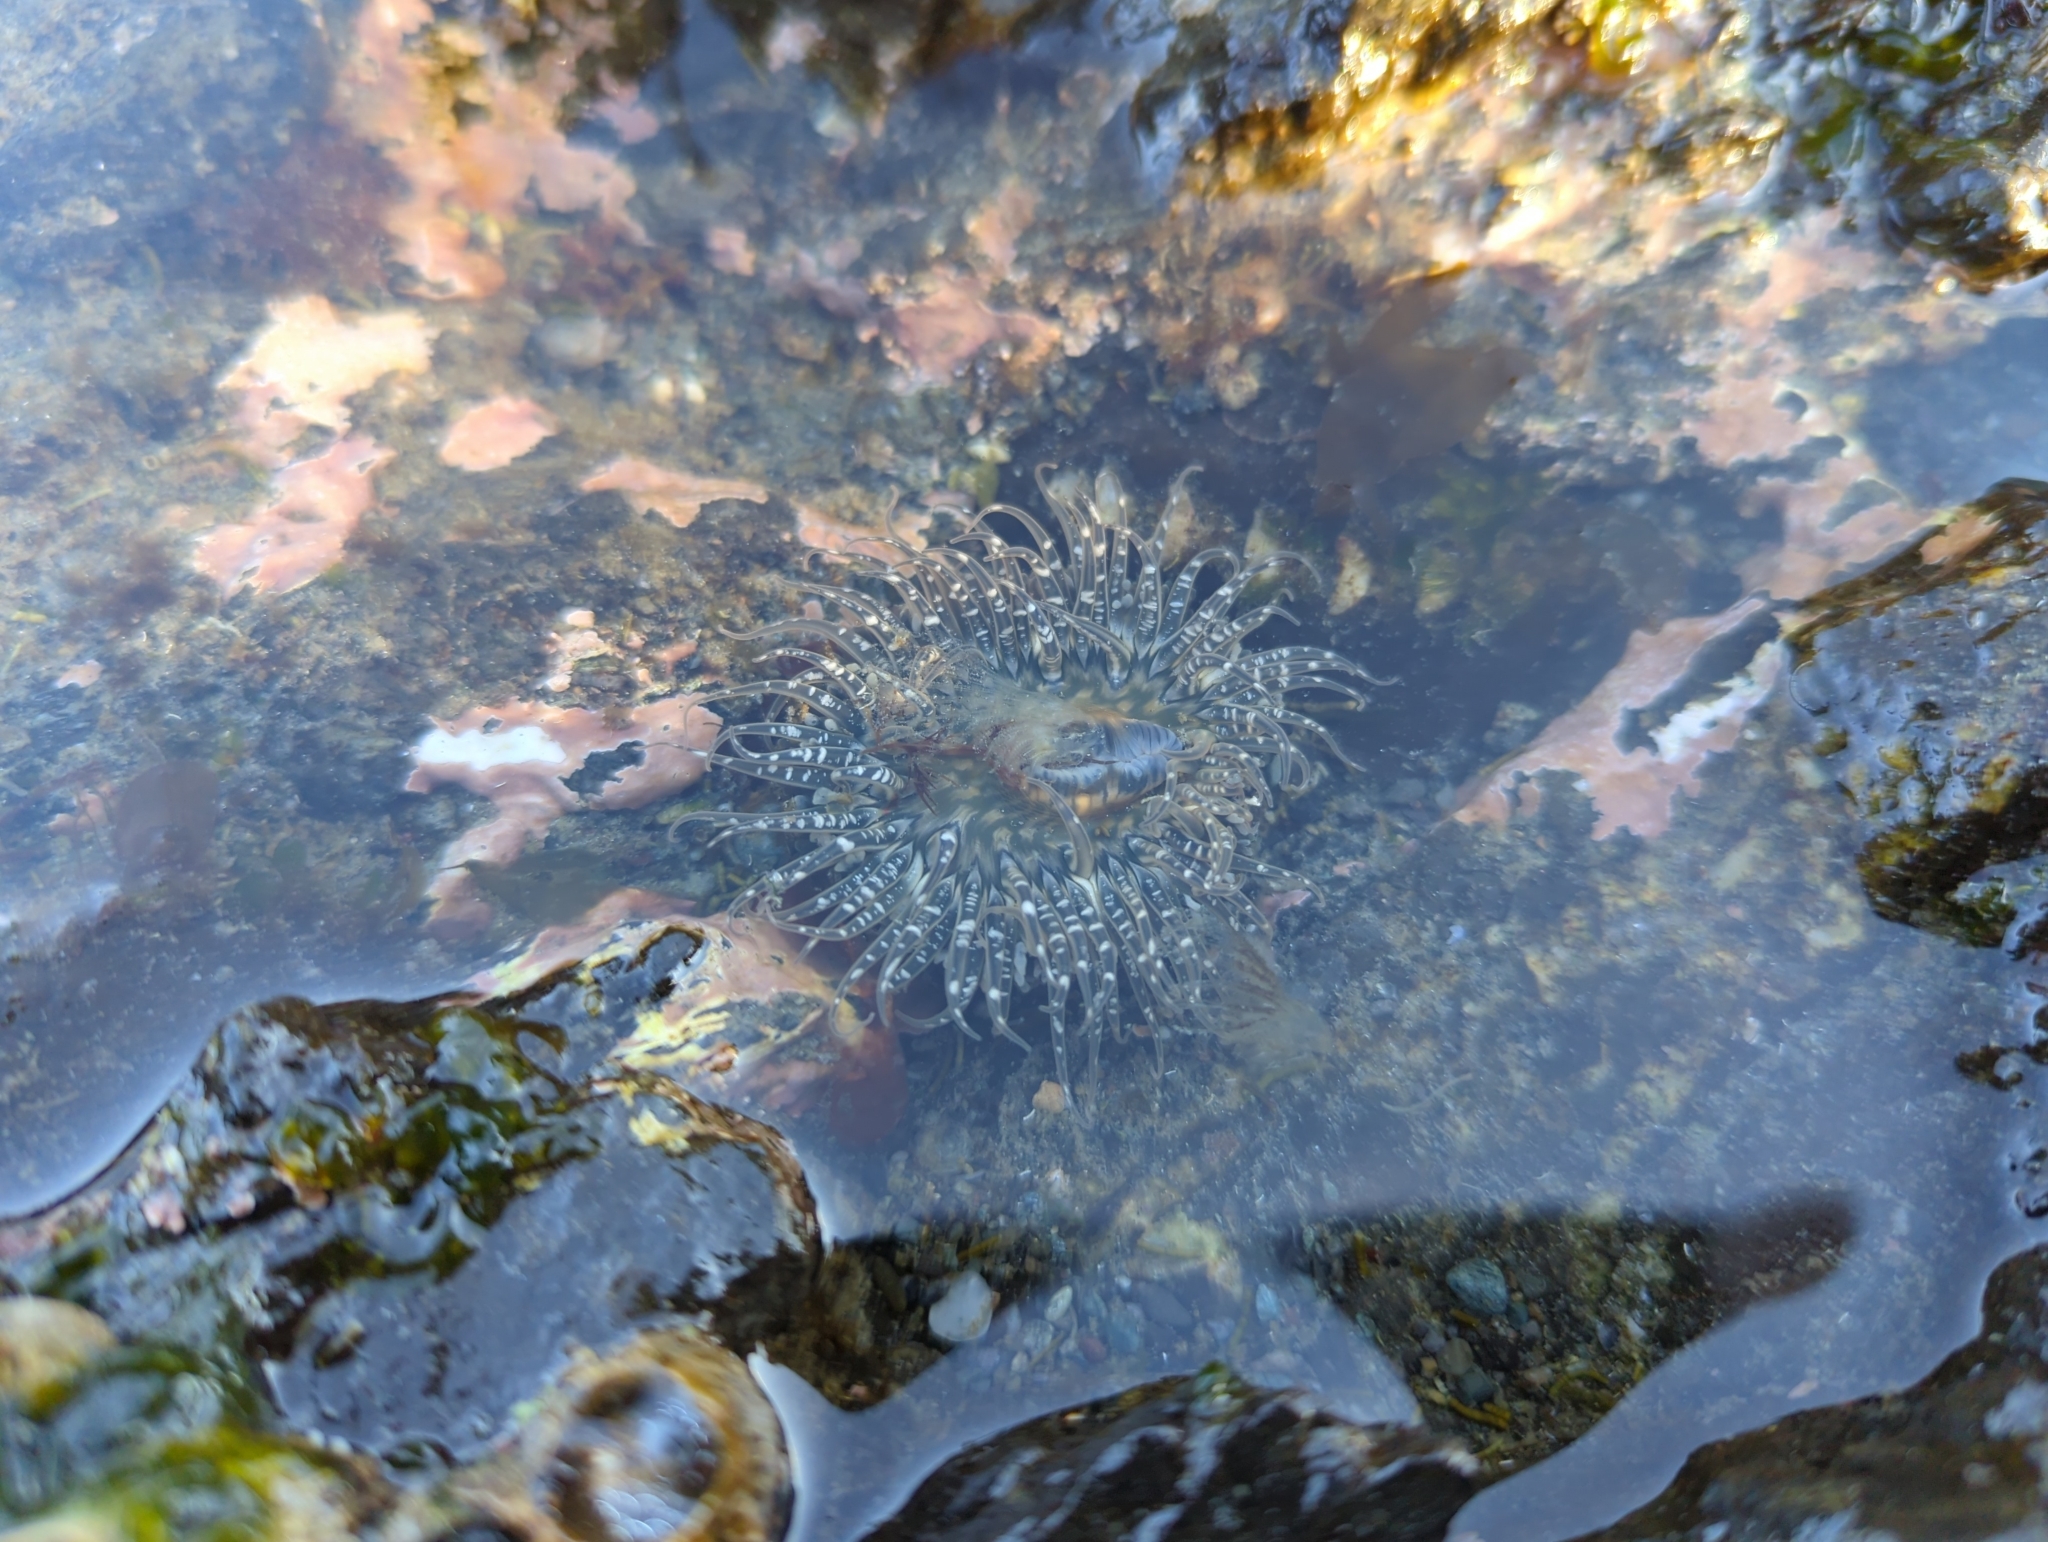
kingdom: Animalia
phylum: Cnidaria
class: Anthozoa
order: Actiniaria
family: Actiniidae
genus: Anthopleura
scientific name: Anthopleura artemisia
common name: Buried sea anemone
